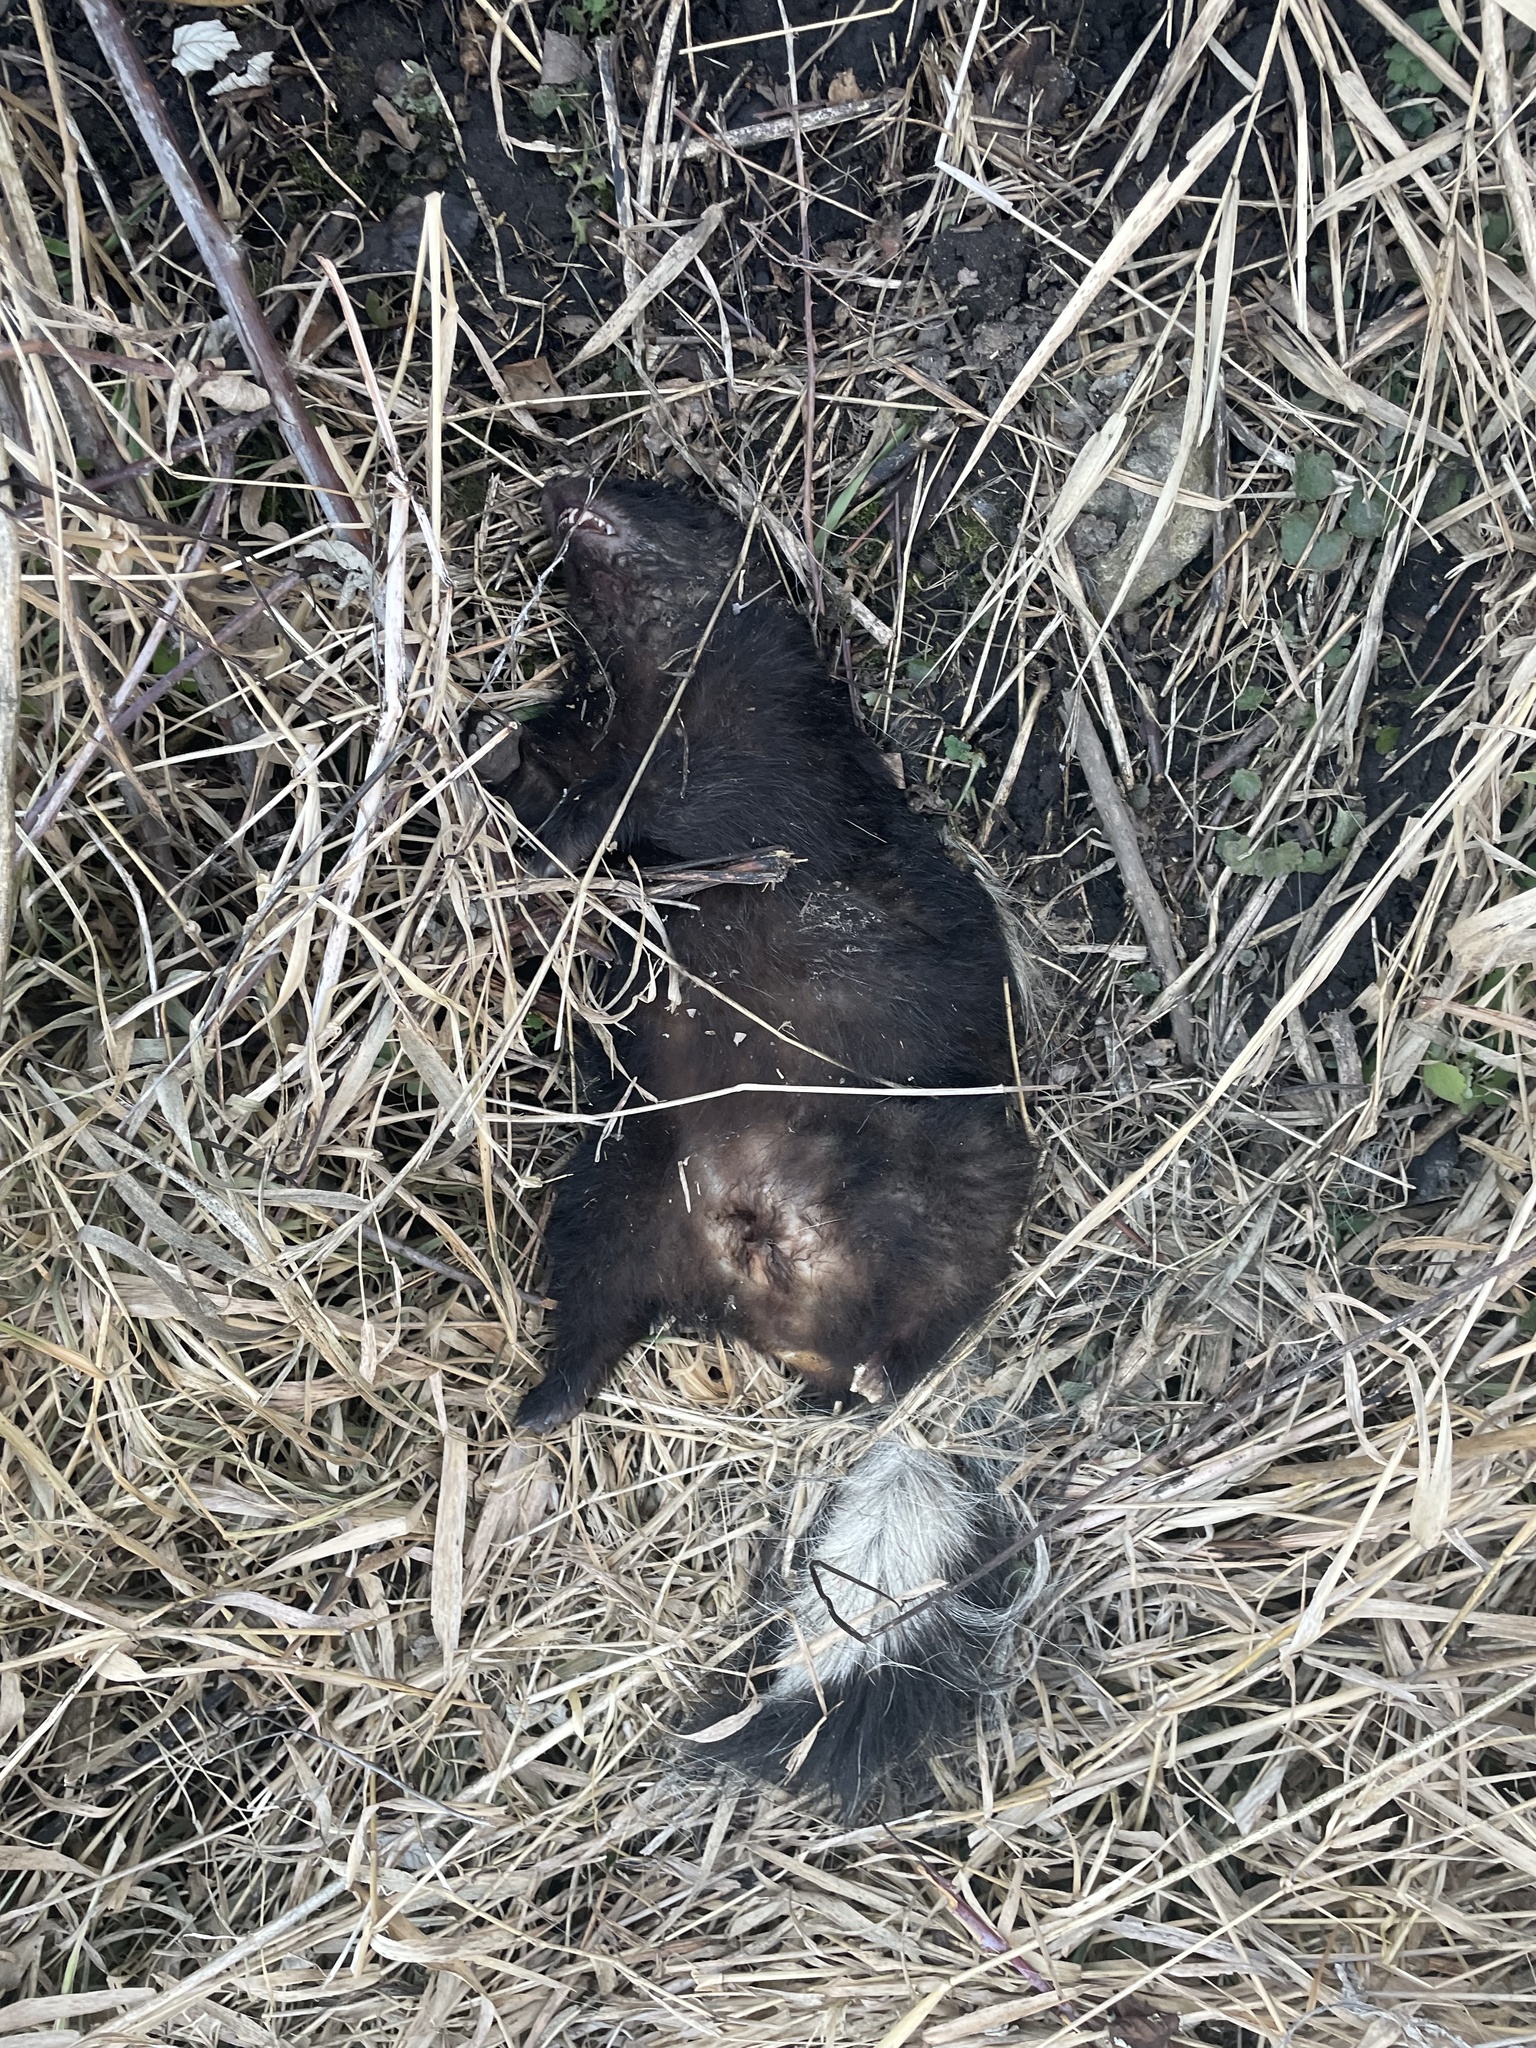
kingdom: Animalia
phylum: Chordata
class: Mammalia
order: Carnivora
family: Mephitidae
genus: Mephitis
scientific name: Mephitis mephitis
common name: Striped skunk
